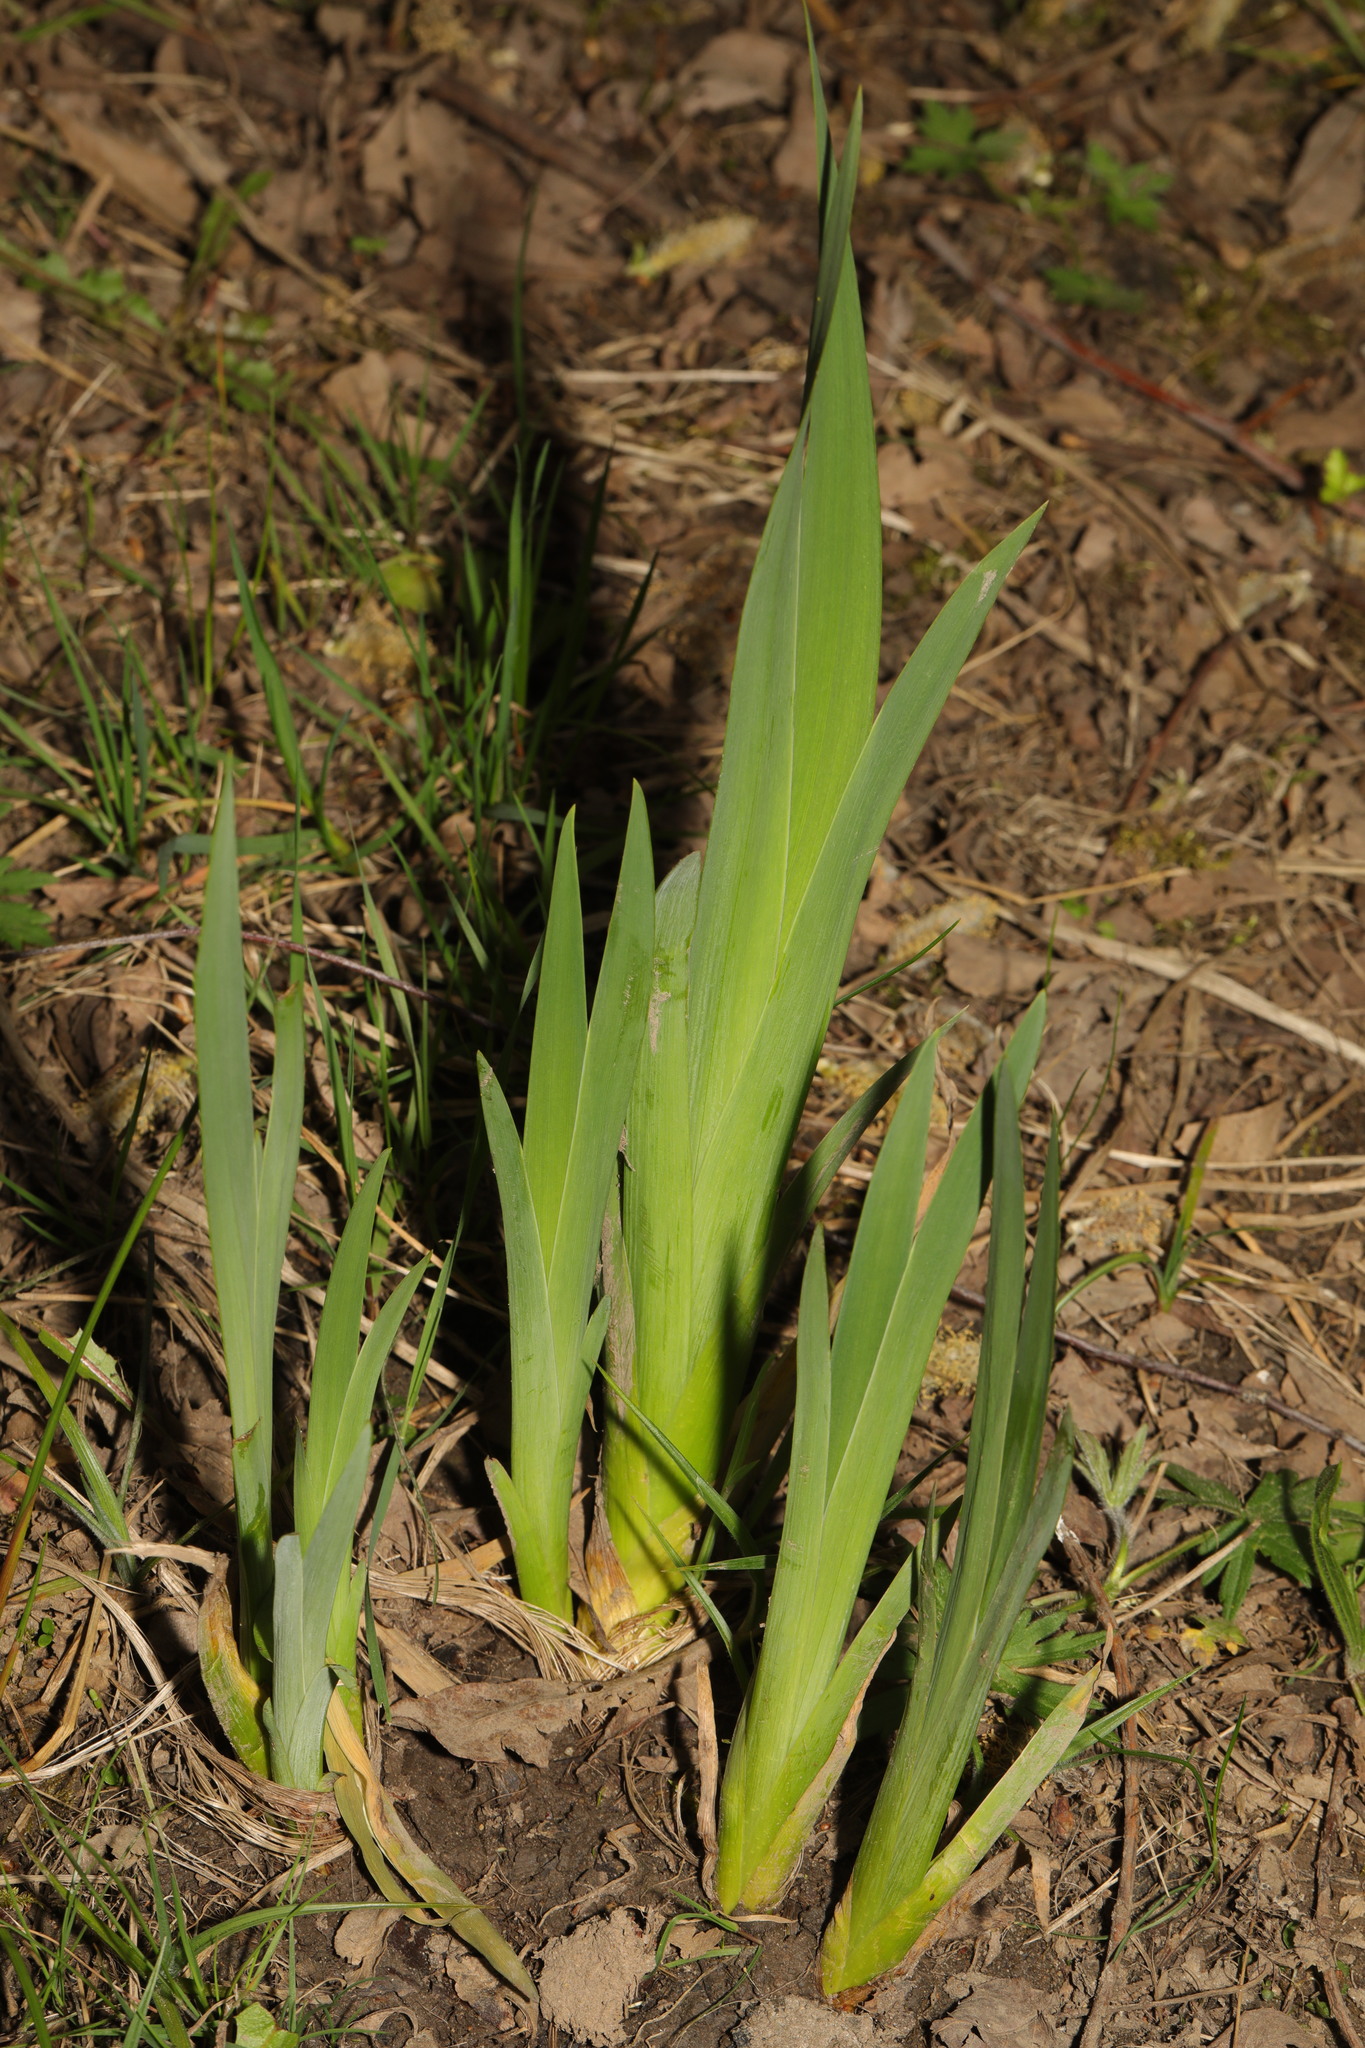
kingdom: Plantae
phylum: Tracheophyta
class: Liliopsida
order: Asparagales
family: Iridaceae
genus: Iris
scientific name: Iris pseudacorus
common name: Yellow flag
